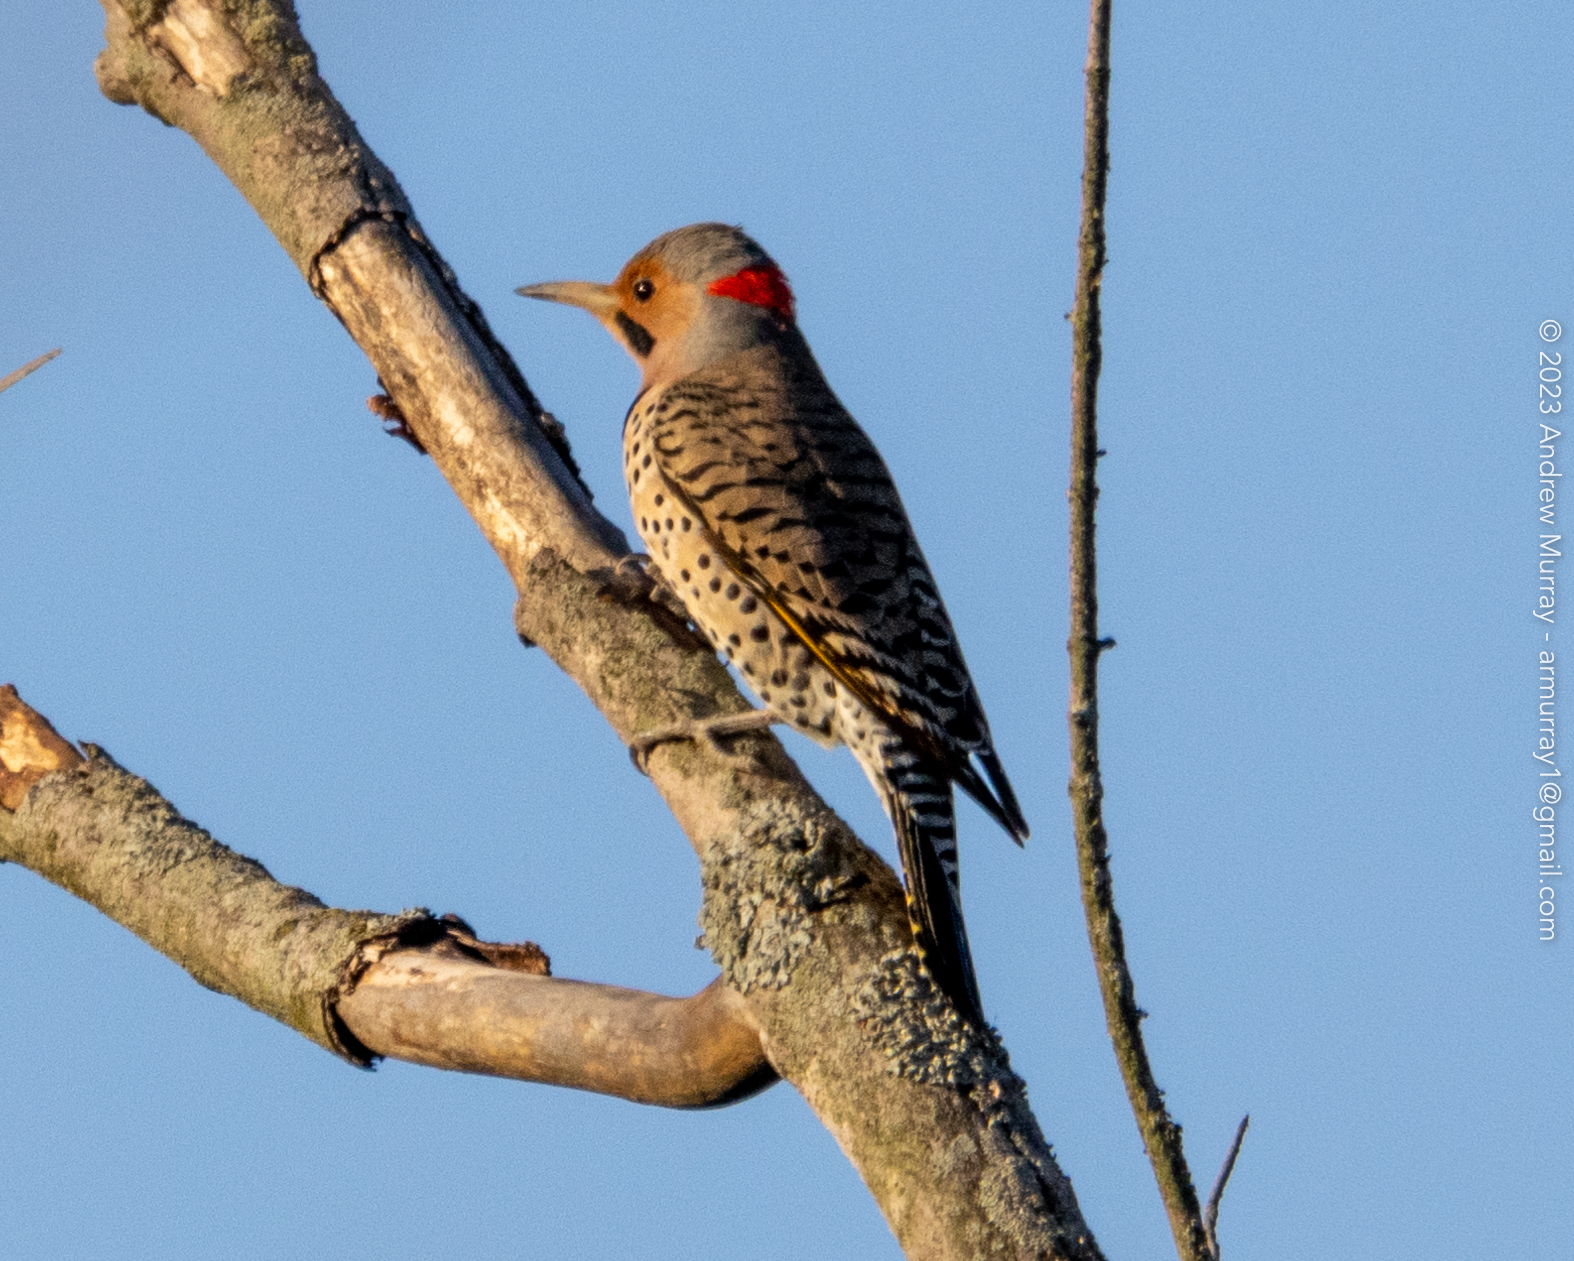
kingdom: Animalia
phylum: Chordata
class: Aves
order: Piciformes
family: Picidae
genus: Colaptes
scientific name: Colaptes auratus
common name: Northern flicker
